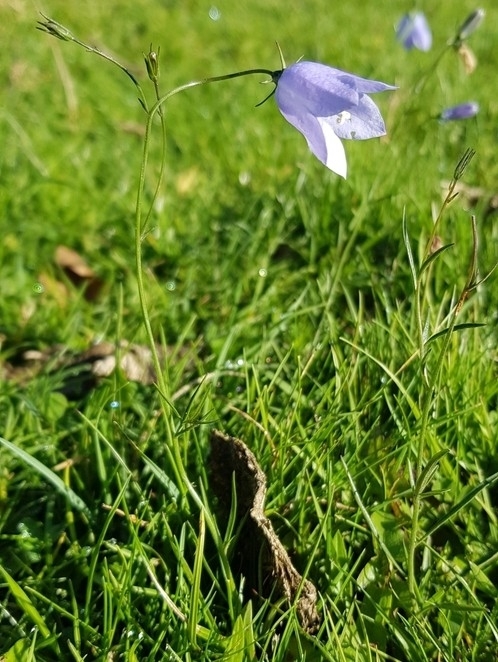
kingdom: Plantae
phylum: Tracheophyta
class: Magnoliopsida
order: Asterales
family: Campanulaceae
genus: Campanula
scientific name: Campanula rotundifolia
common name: Harebell
